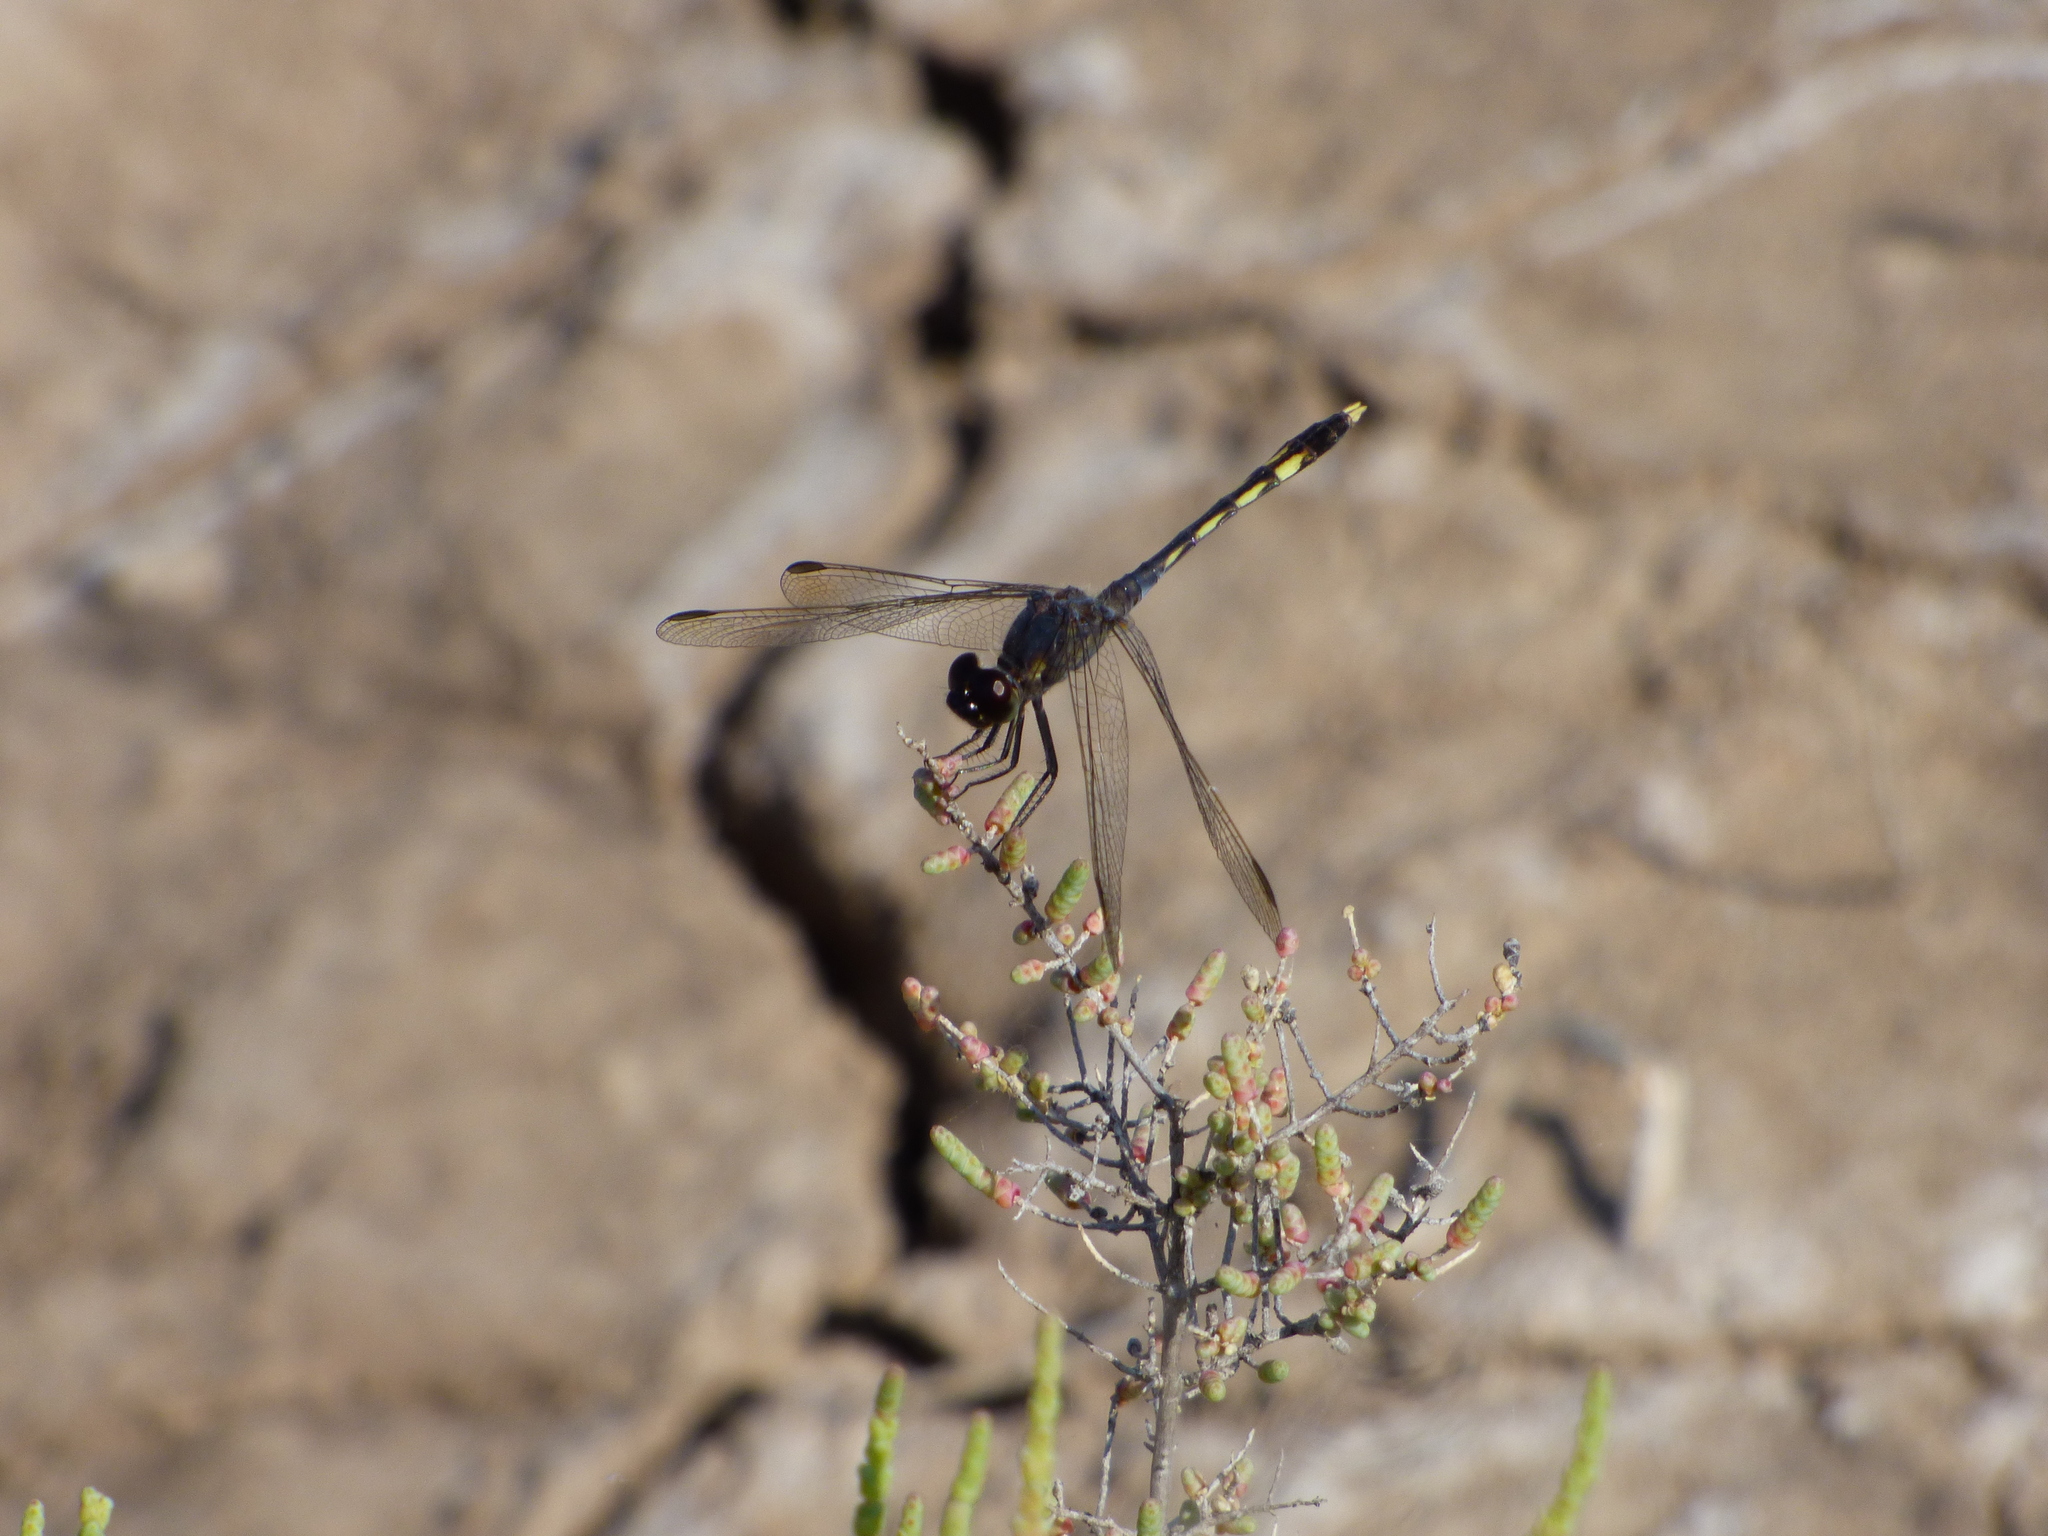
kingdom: Animalia
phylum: Arthropoda
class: Insecta
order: Odonata
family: Libellulidae
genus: Erythrodiplax
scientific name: Erythrodiplax nigricans
